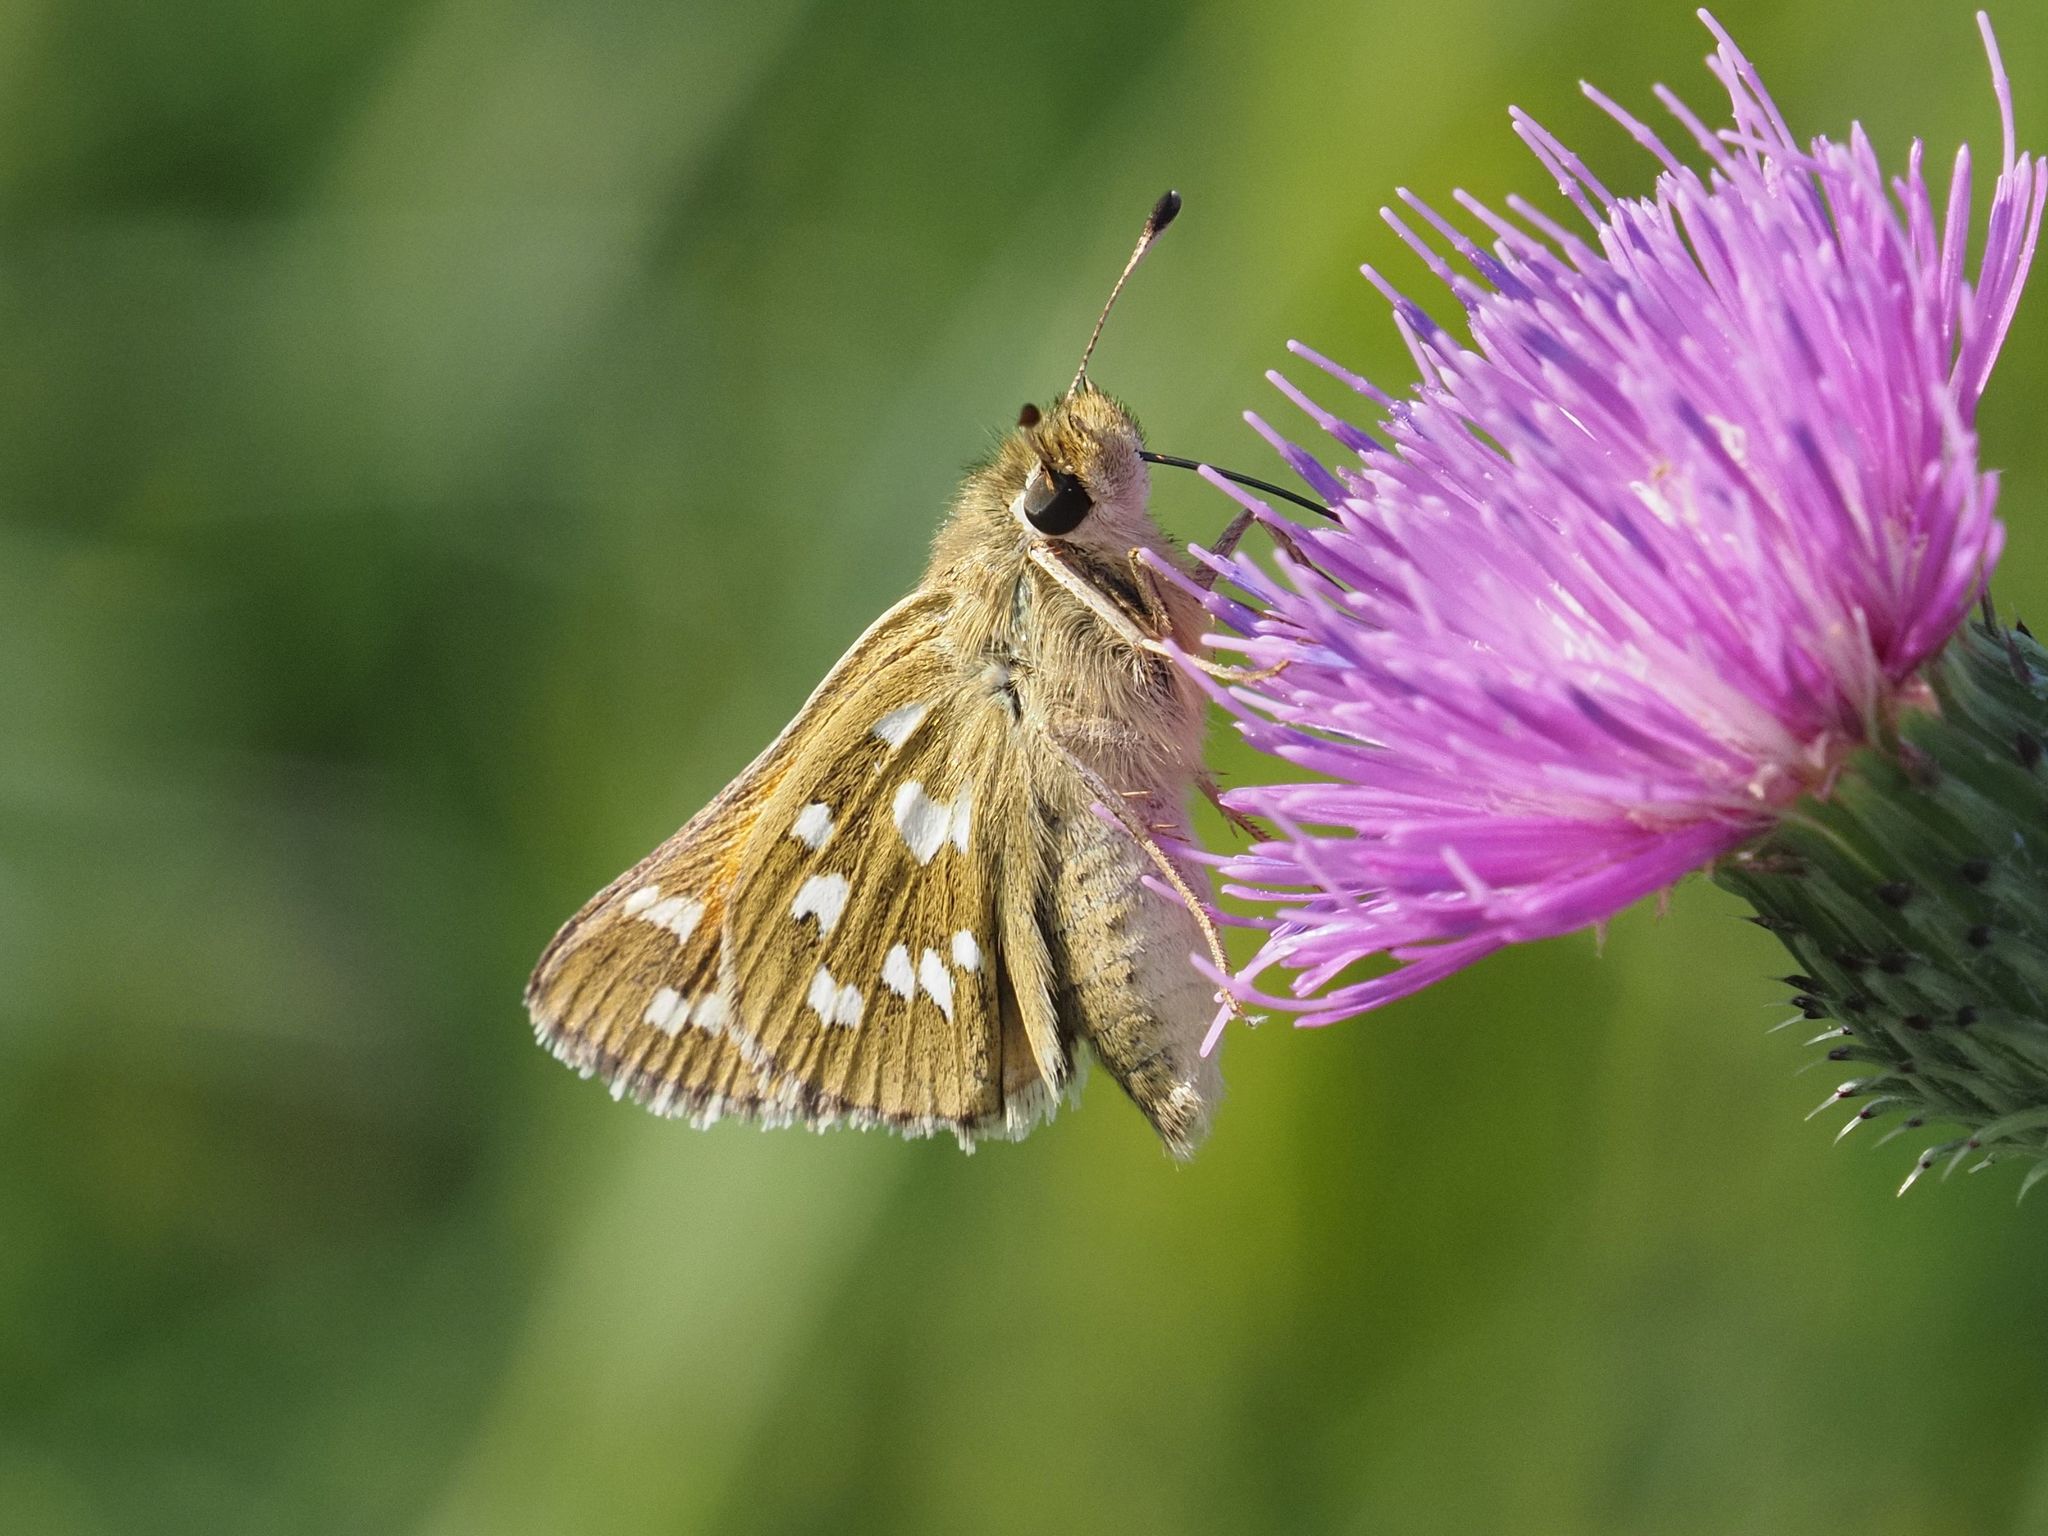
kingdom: Animalia
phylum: Arthropoda
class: Insecta
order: Lepidoptera
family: Hesperiidae
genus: Hesperia
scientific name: Hesperia comma
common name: Common branded skipper
